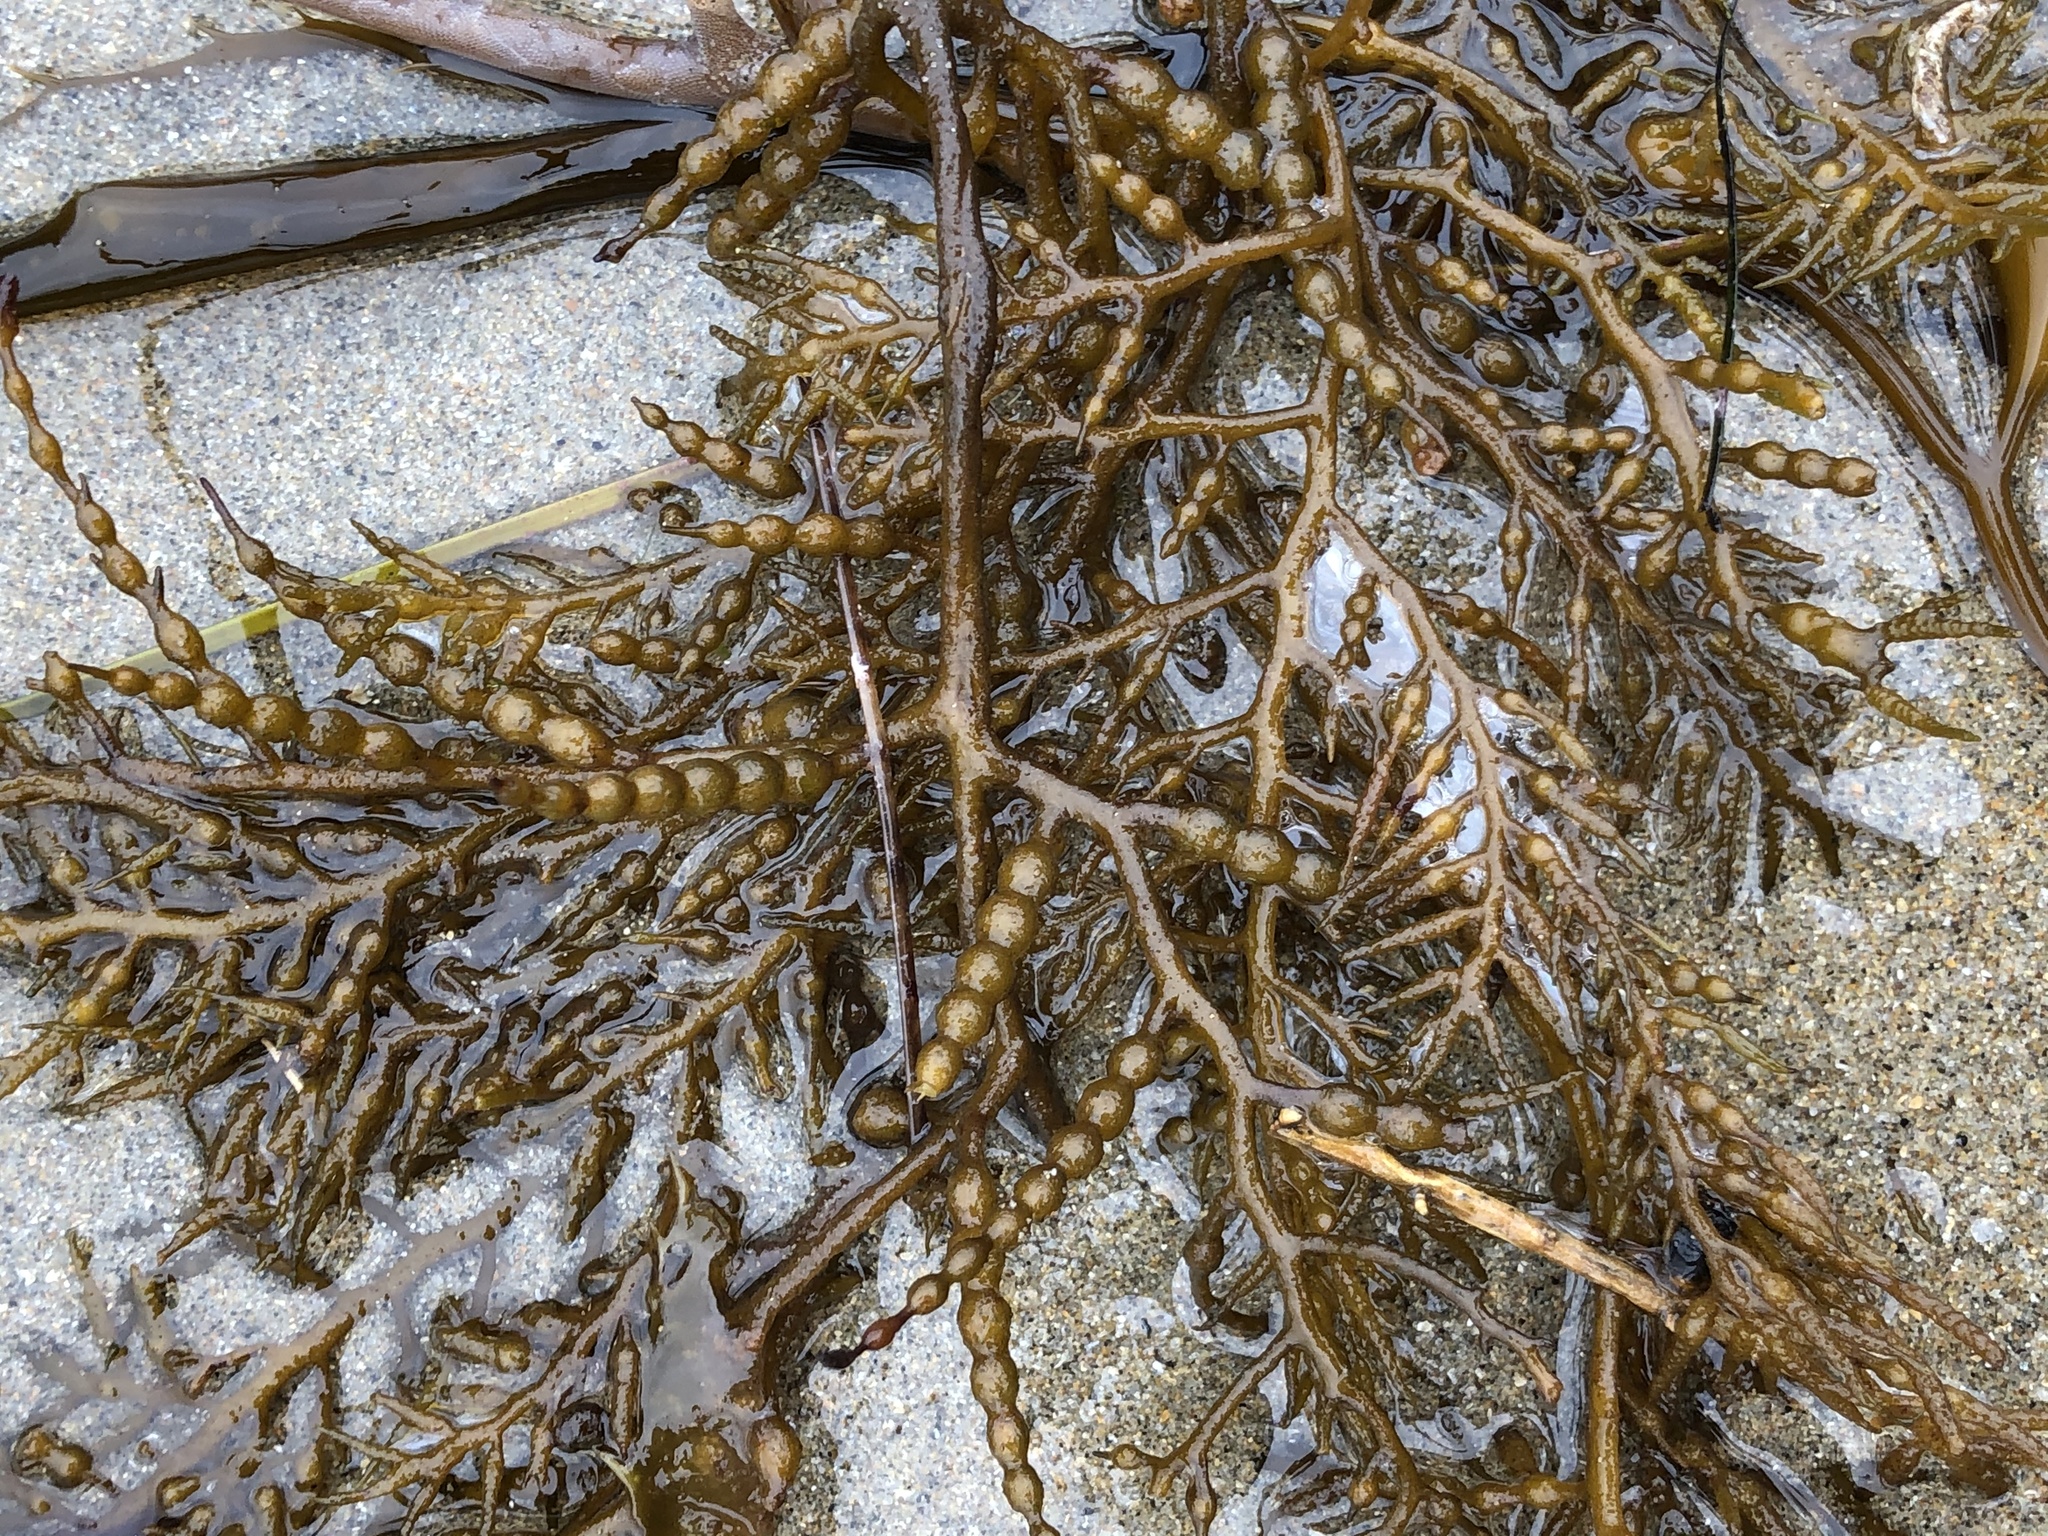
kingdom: Chromista
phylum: Ochrophyta
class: Phaeophyceae
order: Fucales
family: Sargassaceae
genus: Stephanocystis
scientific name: Stephanocystis
